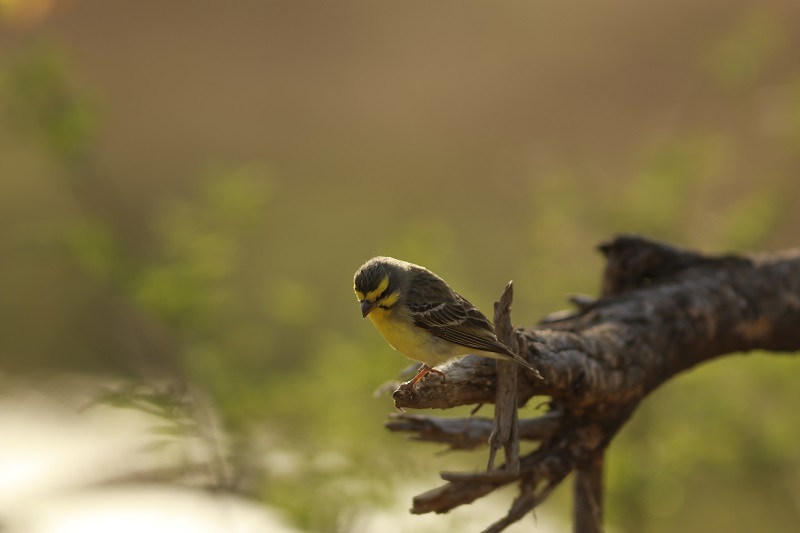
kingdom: Animalia
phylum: Chordata
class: Aves
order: Passeriformes
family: Fringillidae
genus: Crithagra
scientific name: Crithagra mozambica
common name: Yellow-fronted canary
